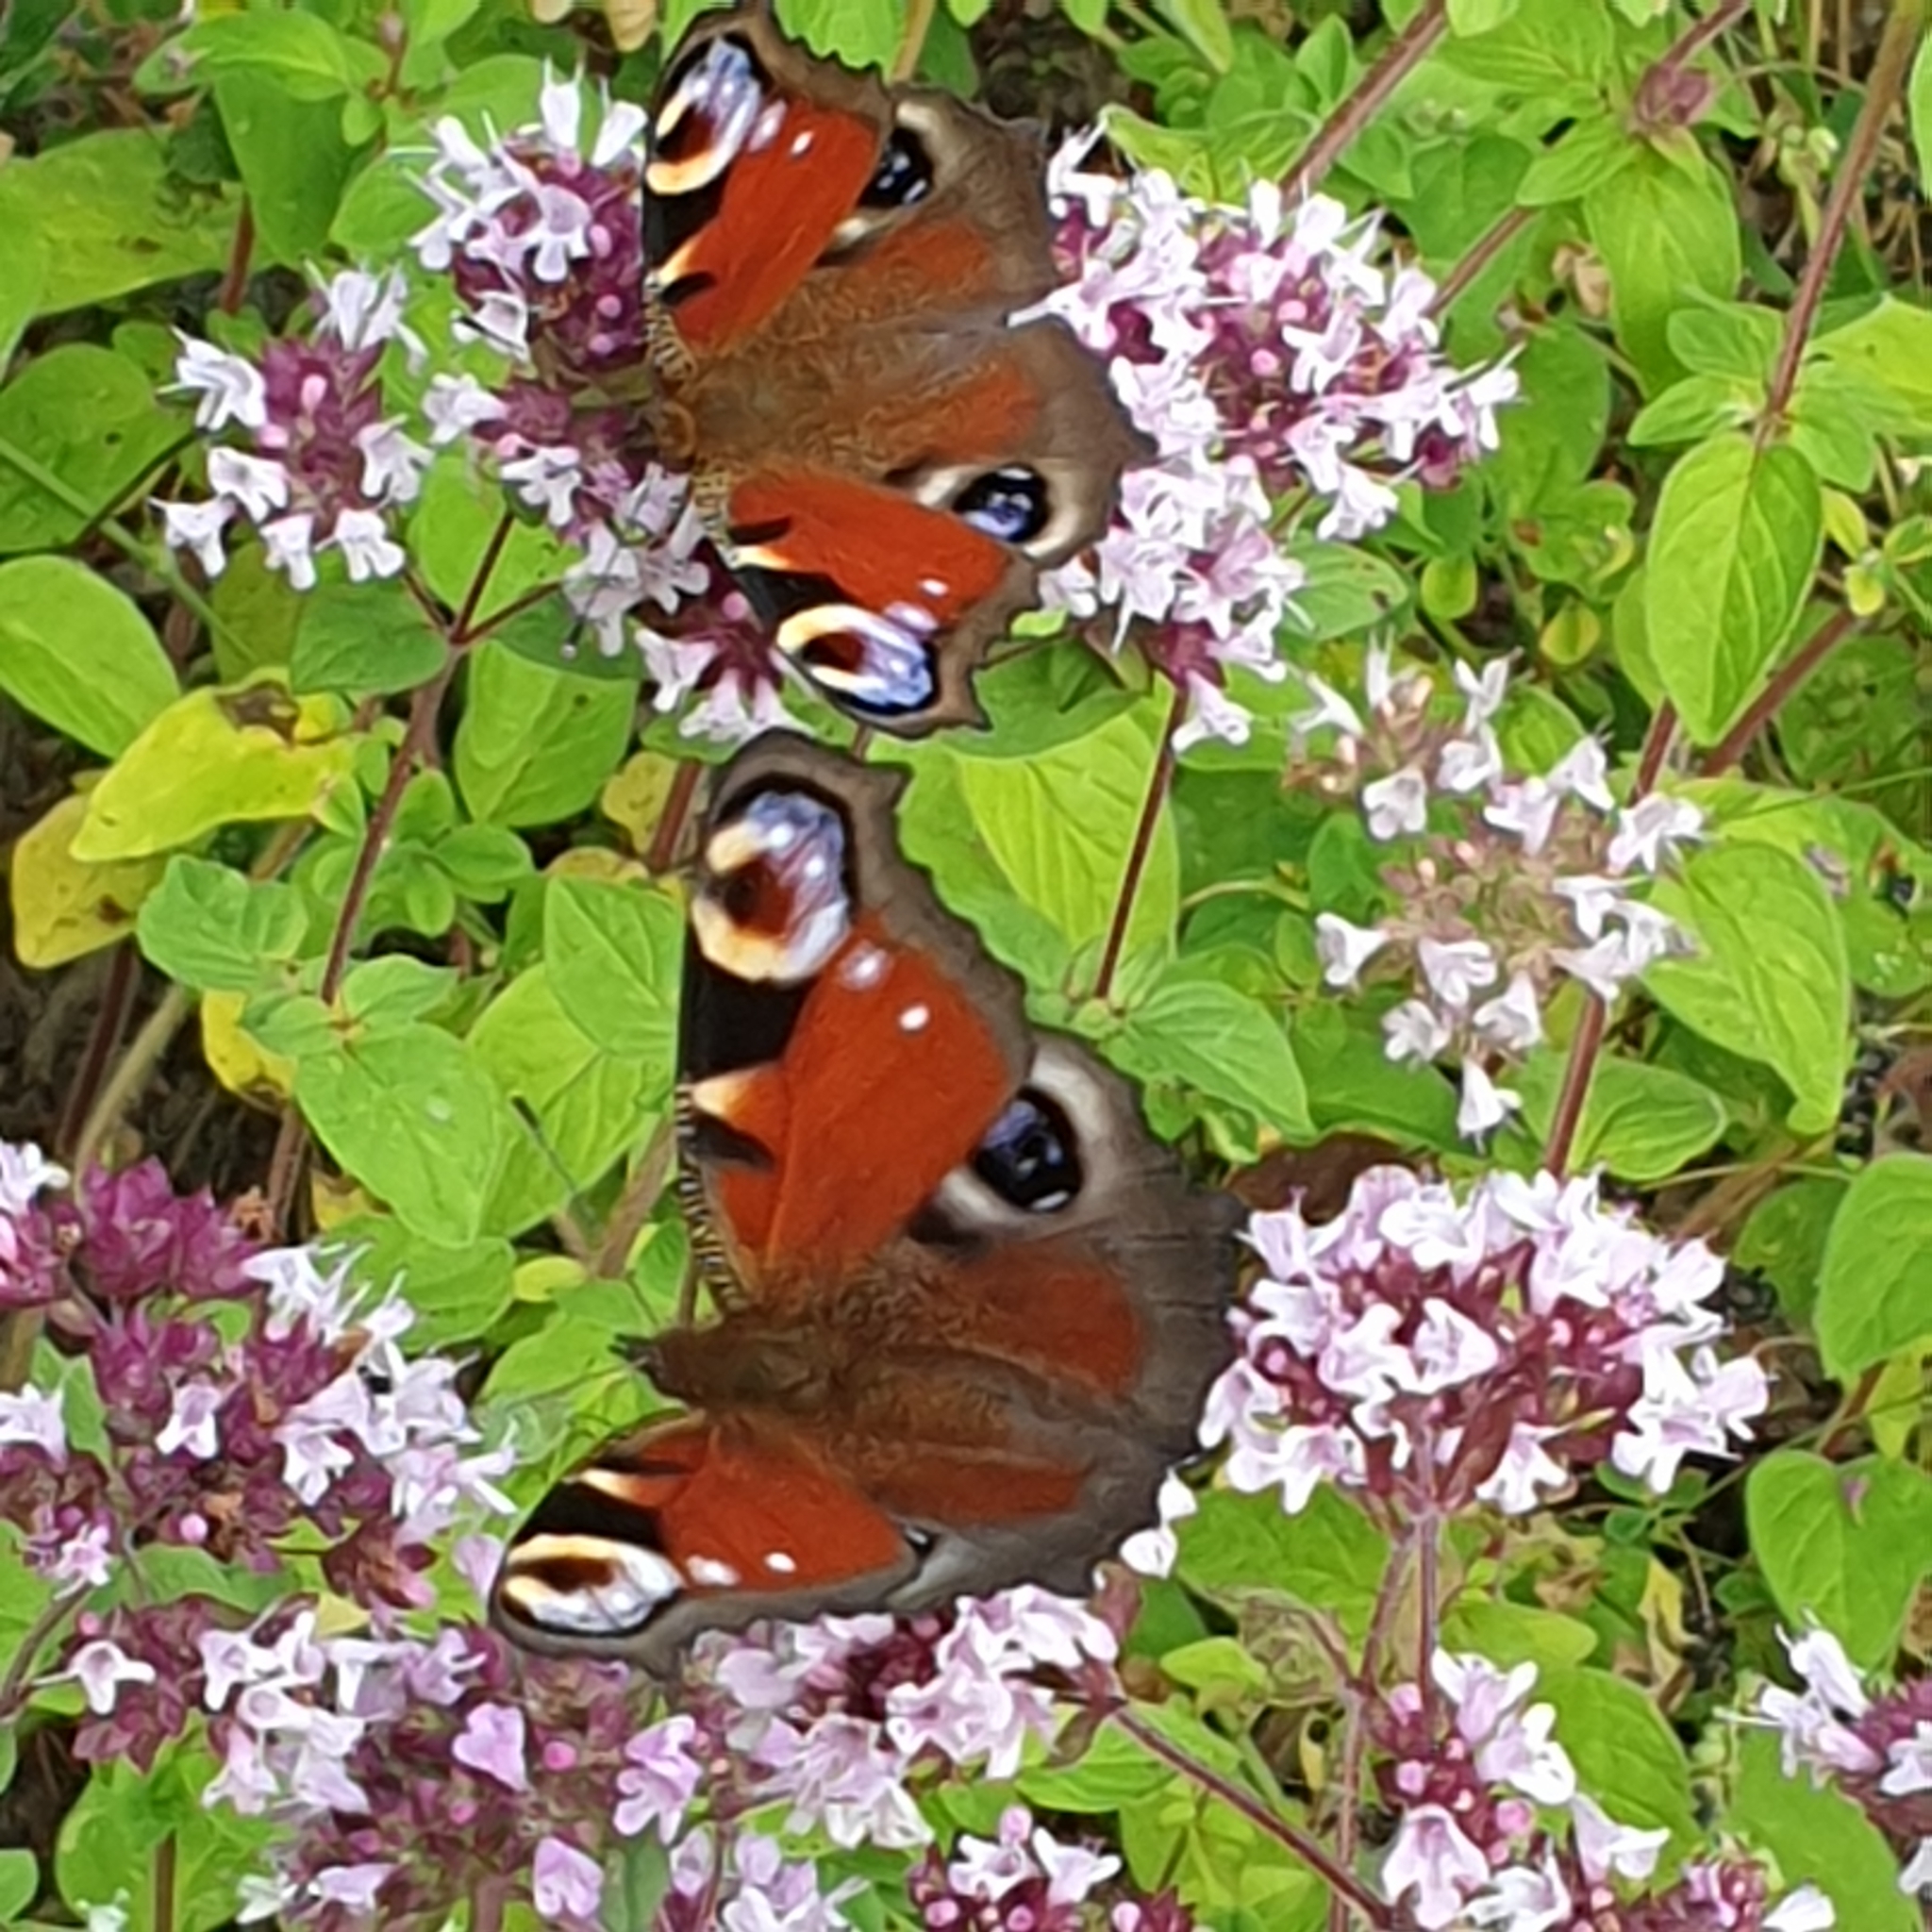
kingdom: Animalia
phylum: Arthropoda
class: Insecta
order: Lepidoptera
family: Nymphalidae
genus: Aglais
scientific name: Aglais io
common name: Peacock
